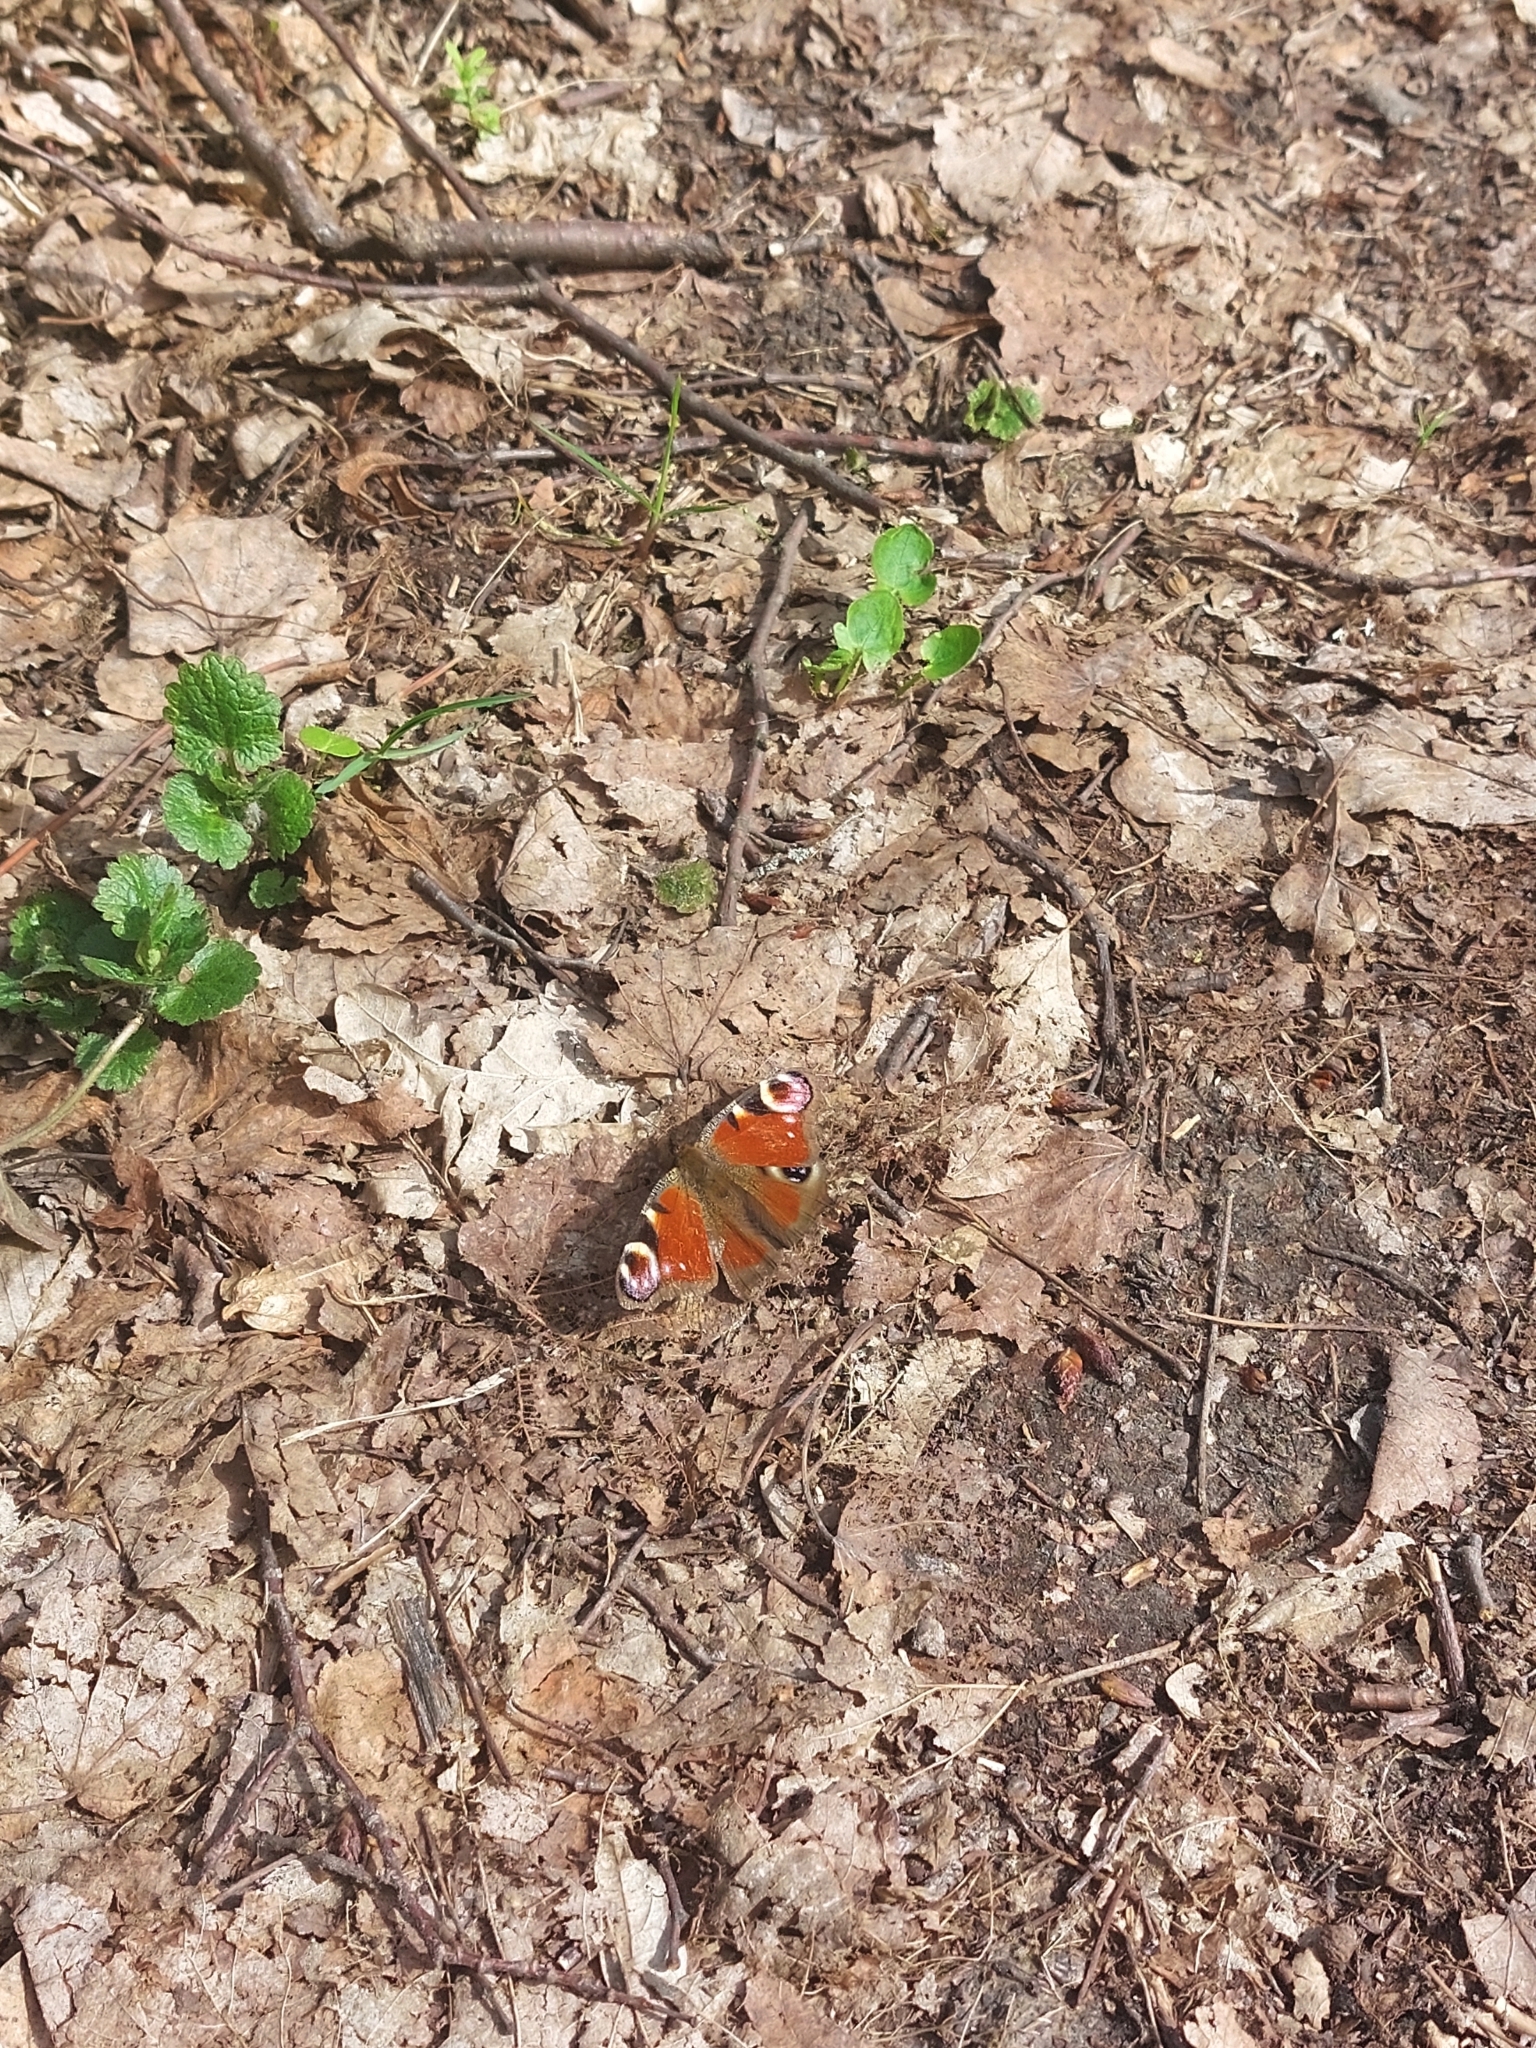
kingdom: Animalia
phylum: Arthropoda
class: Insecta
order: Lepidoptera
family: Nymphalidae
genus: Aglais
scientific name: Aglais io
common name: Peacock
